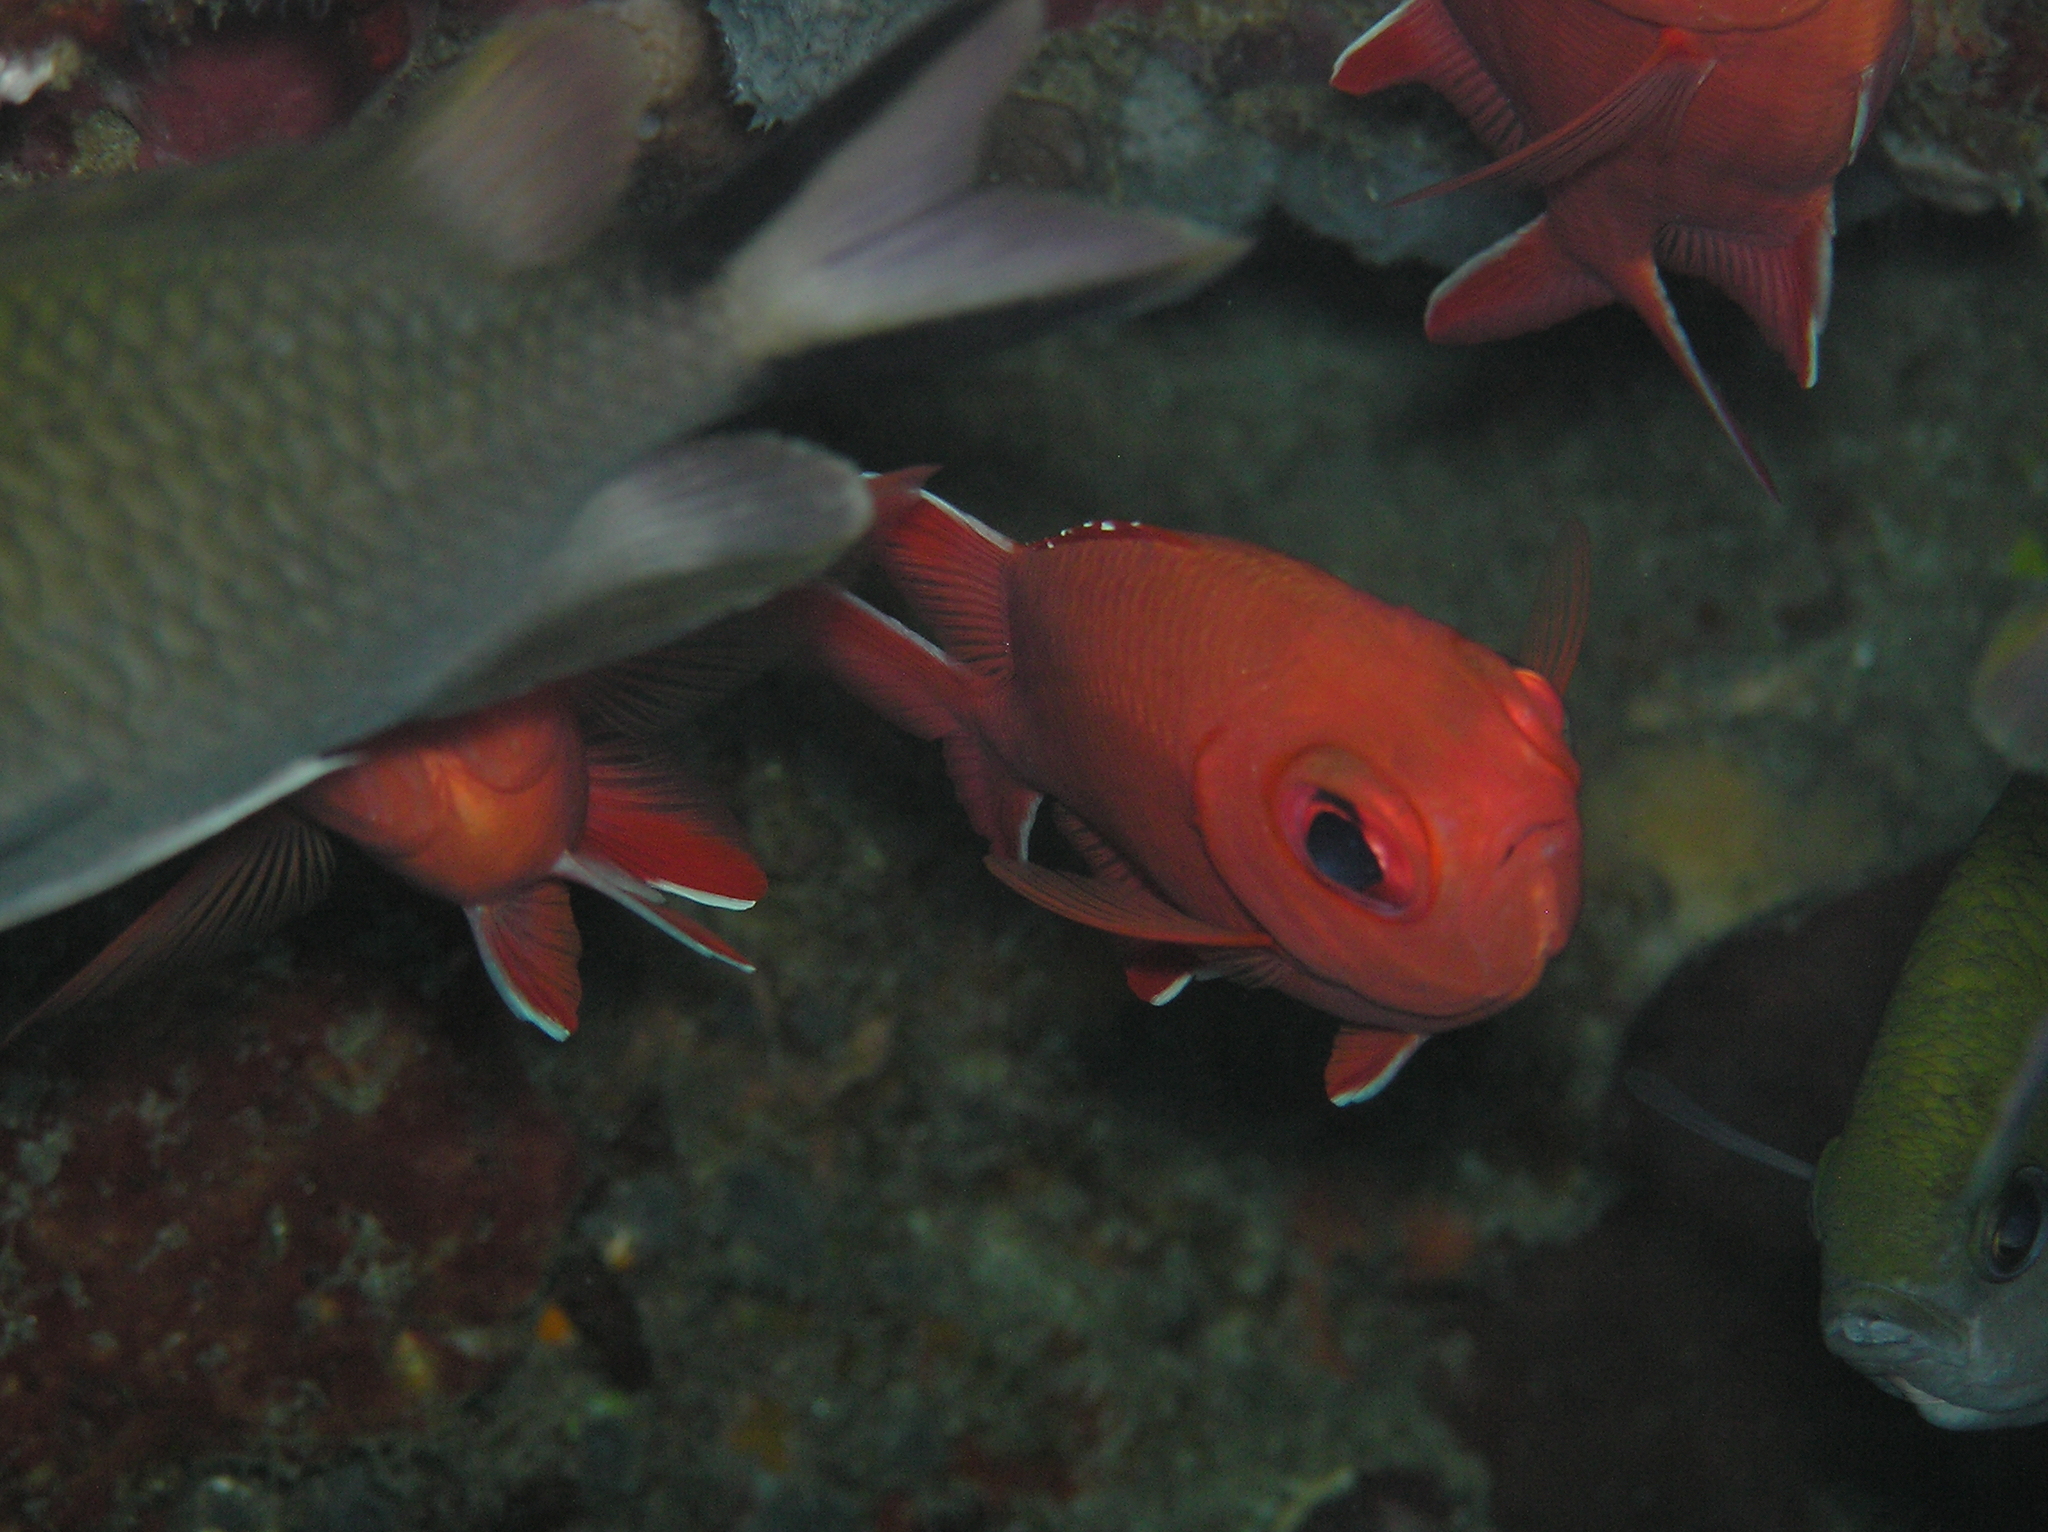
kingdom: Animalia
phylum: Chordata
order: Beryciformes
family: Holocentridae
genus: Myripristis
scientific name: Myripristis vittata
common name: Immaculate squirrelfish
